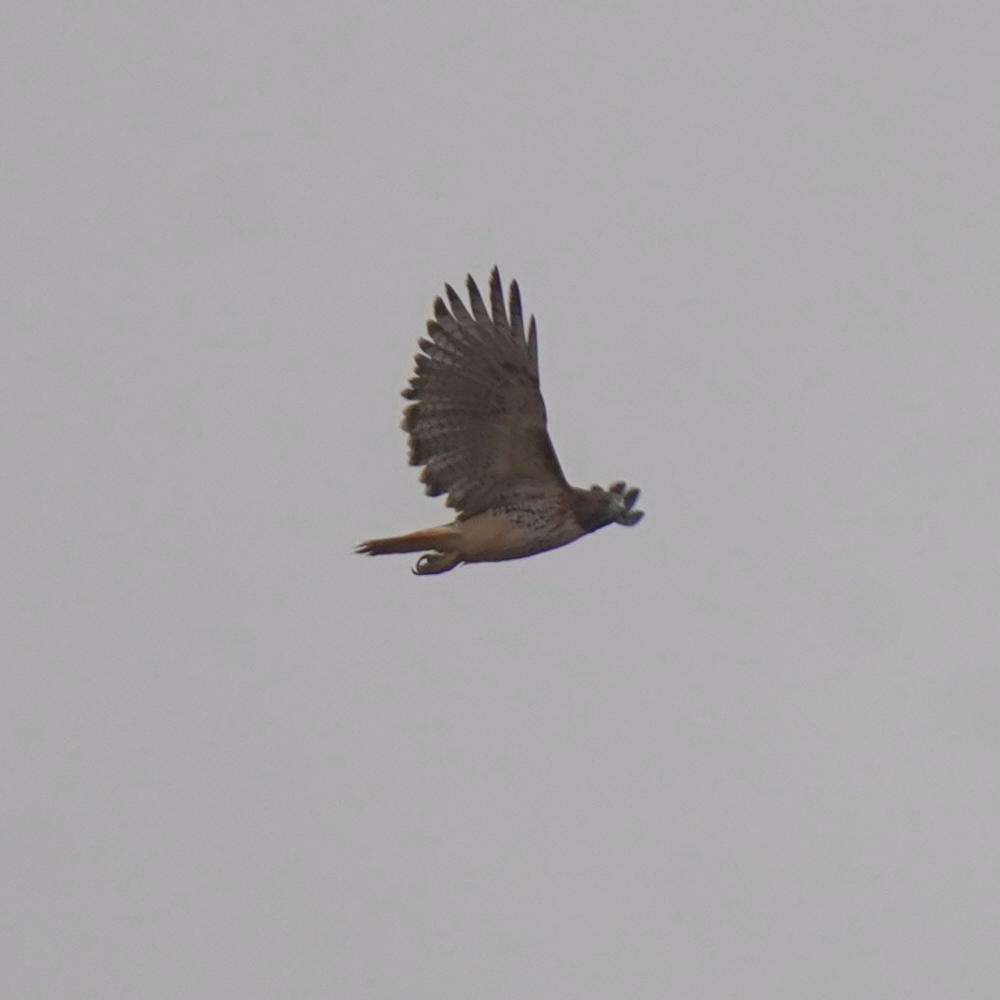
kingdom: Animalia
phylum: Chordata
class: Aves
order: Accipitriformes
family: Accipitridae
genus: Buteo
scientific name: Buteo jamaicensis
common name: Red-tailed hawk
